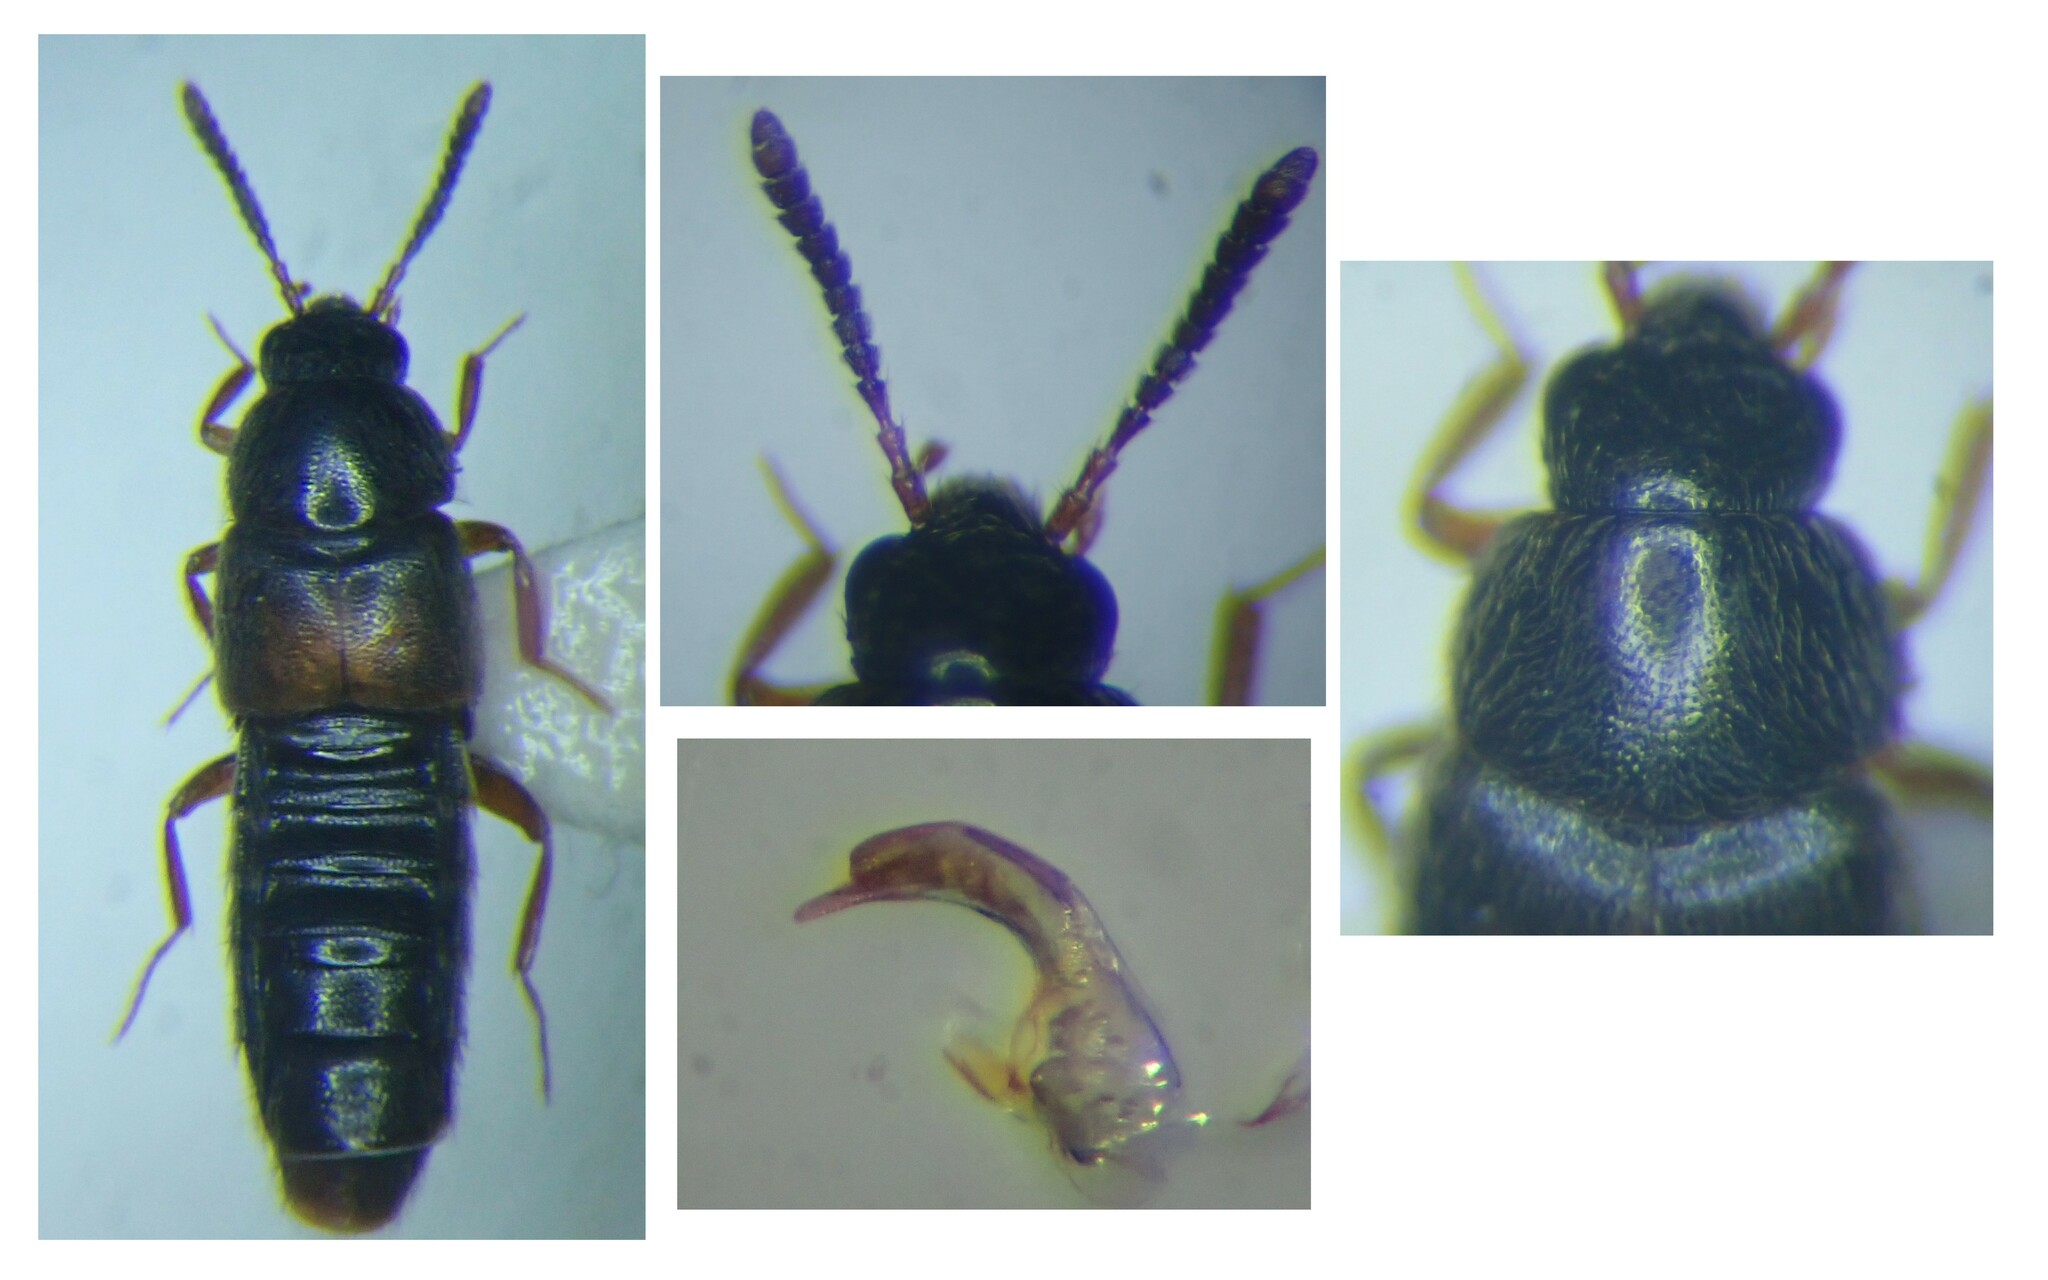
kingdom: Animalia
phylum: Arthropoda
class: Insecta
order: Coleoptera
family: Staphylinidae
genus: Haploglossa
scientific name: Haploglossa gentilis
